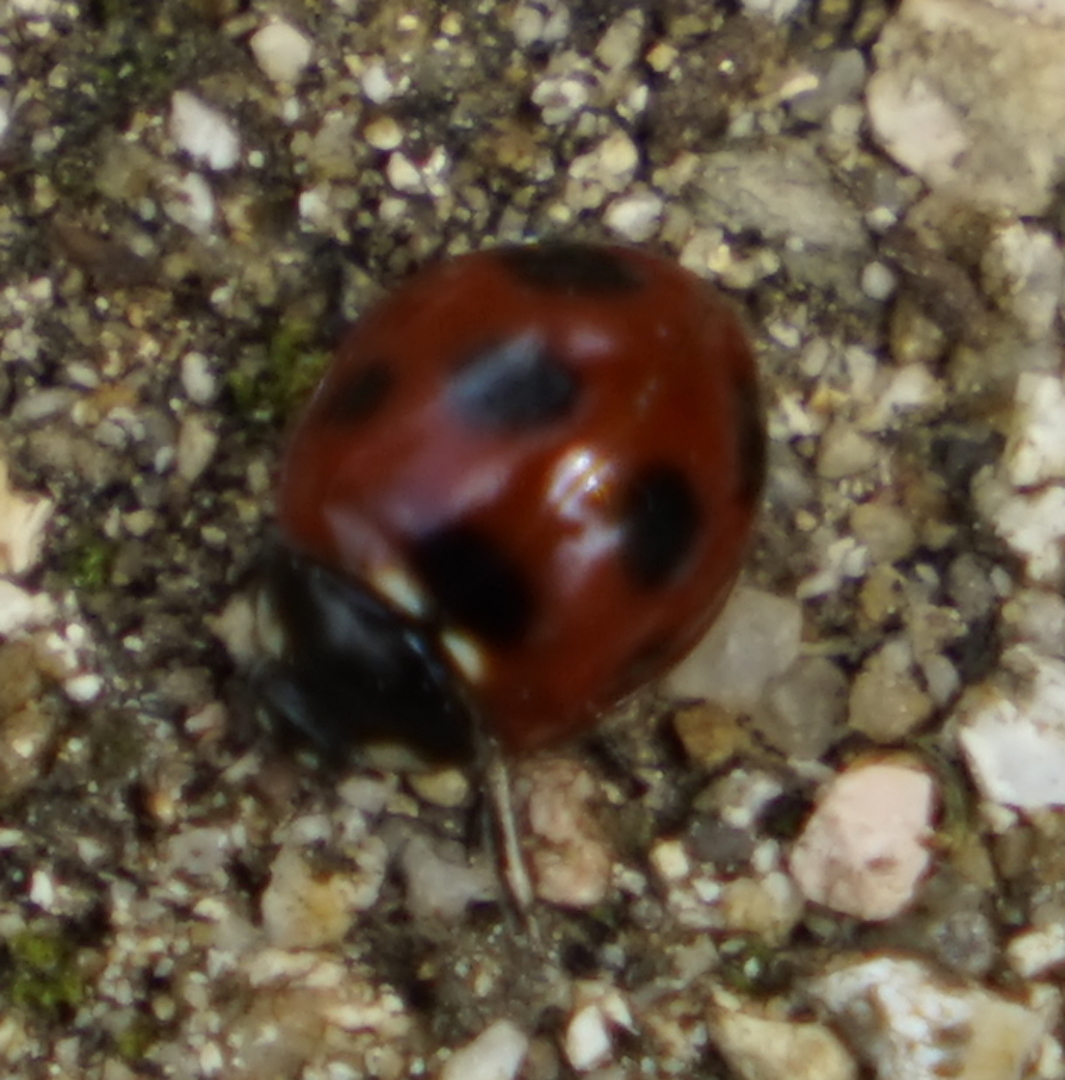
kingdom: Animalia
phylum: Arthropoda
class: Insecta
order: Coleoptera
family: Coccinellidae
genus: Coccinella
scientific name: Coccinella septempunctata
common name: Sevenspotted lady beetle
